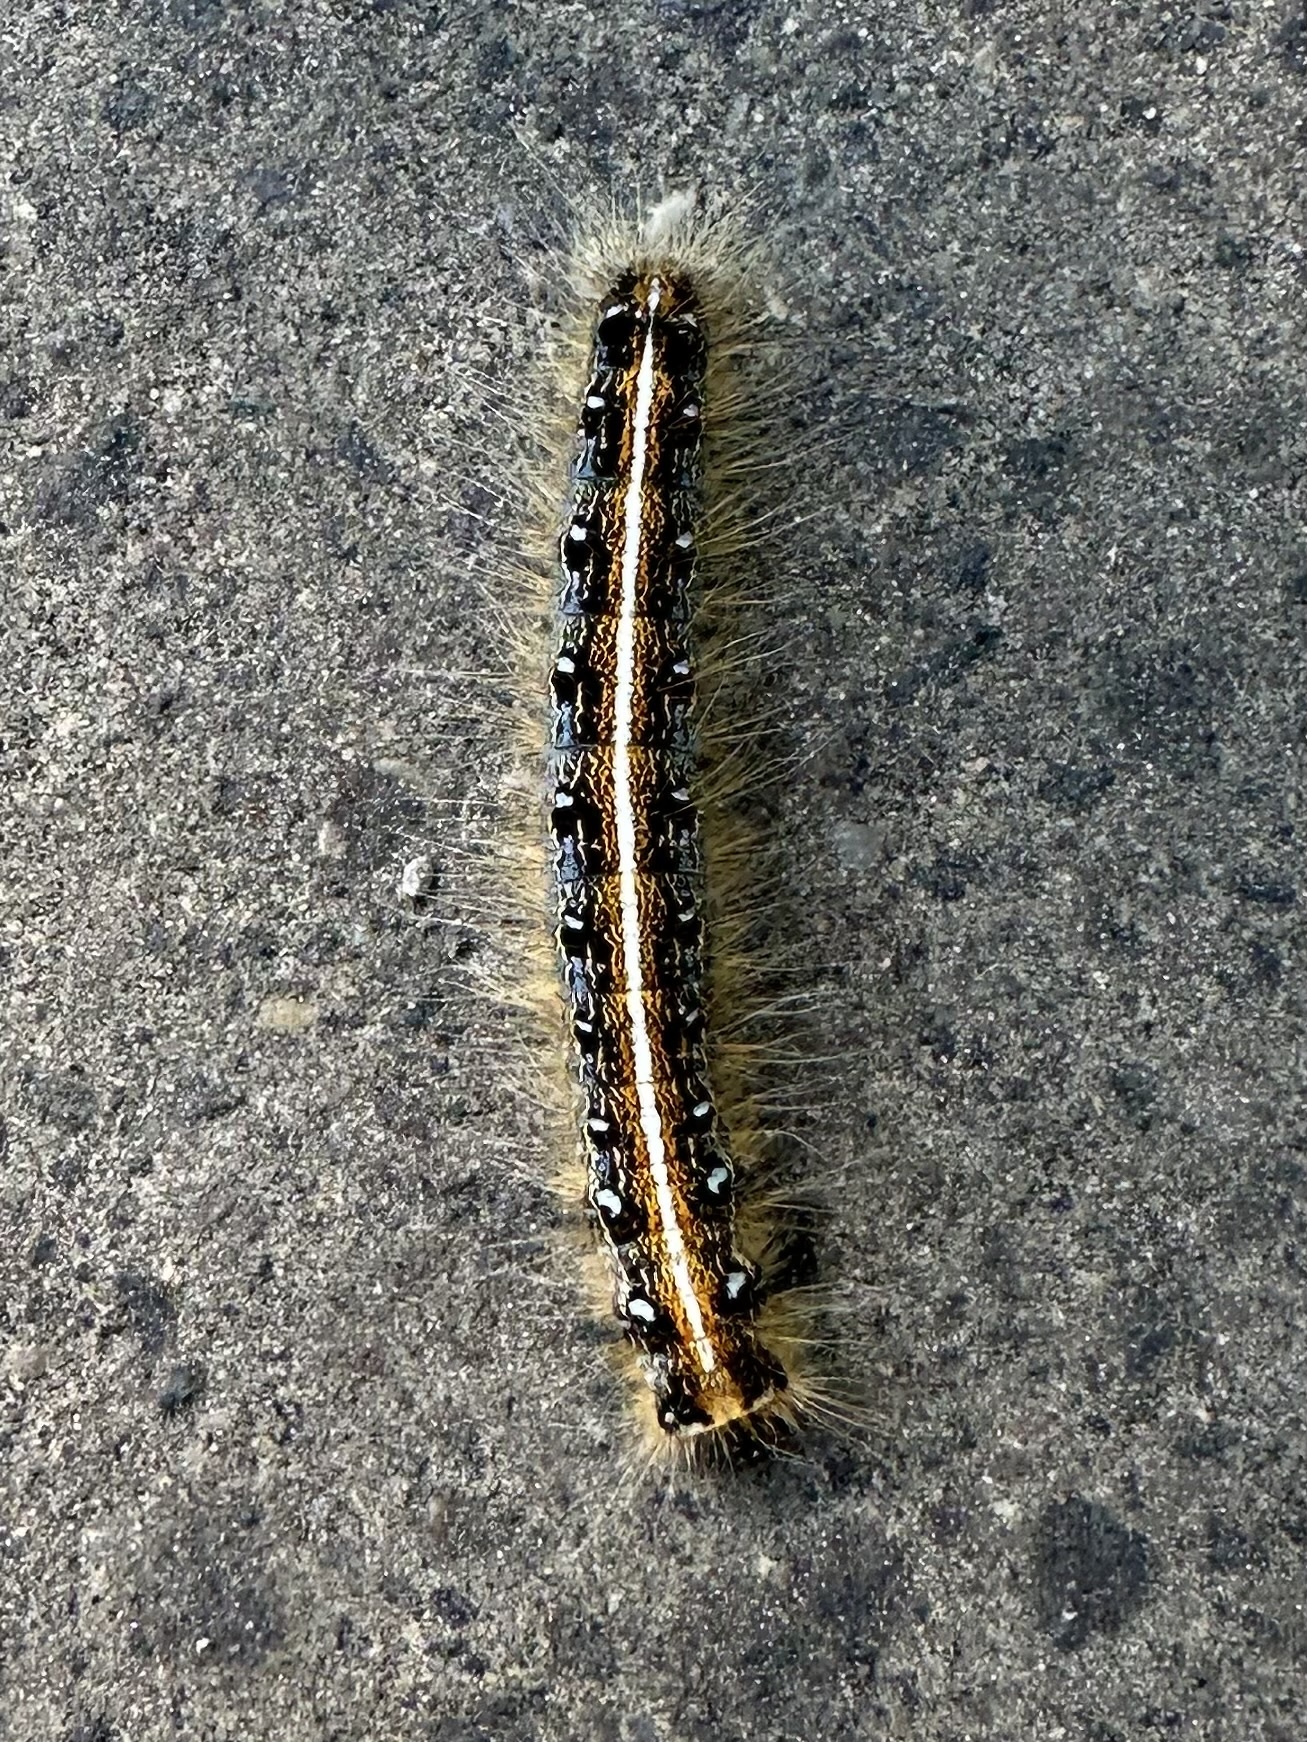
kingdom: Animalia
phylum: Arthropoda
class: Insecta
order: Lepidoptera
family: Lasiocampidae
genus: Malacosoma
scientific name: Malacosoma americana
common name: Eastern tent caterpillar moth
